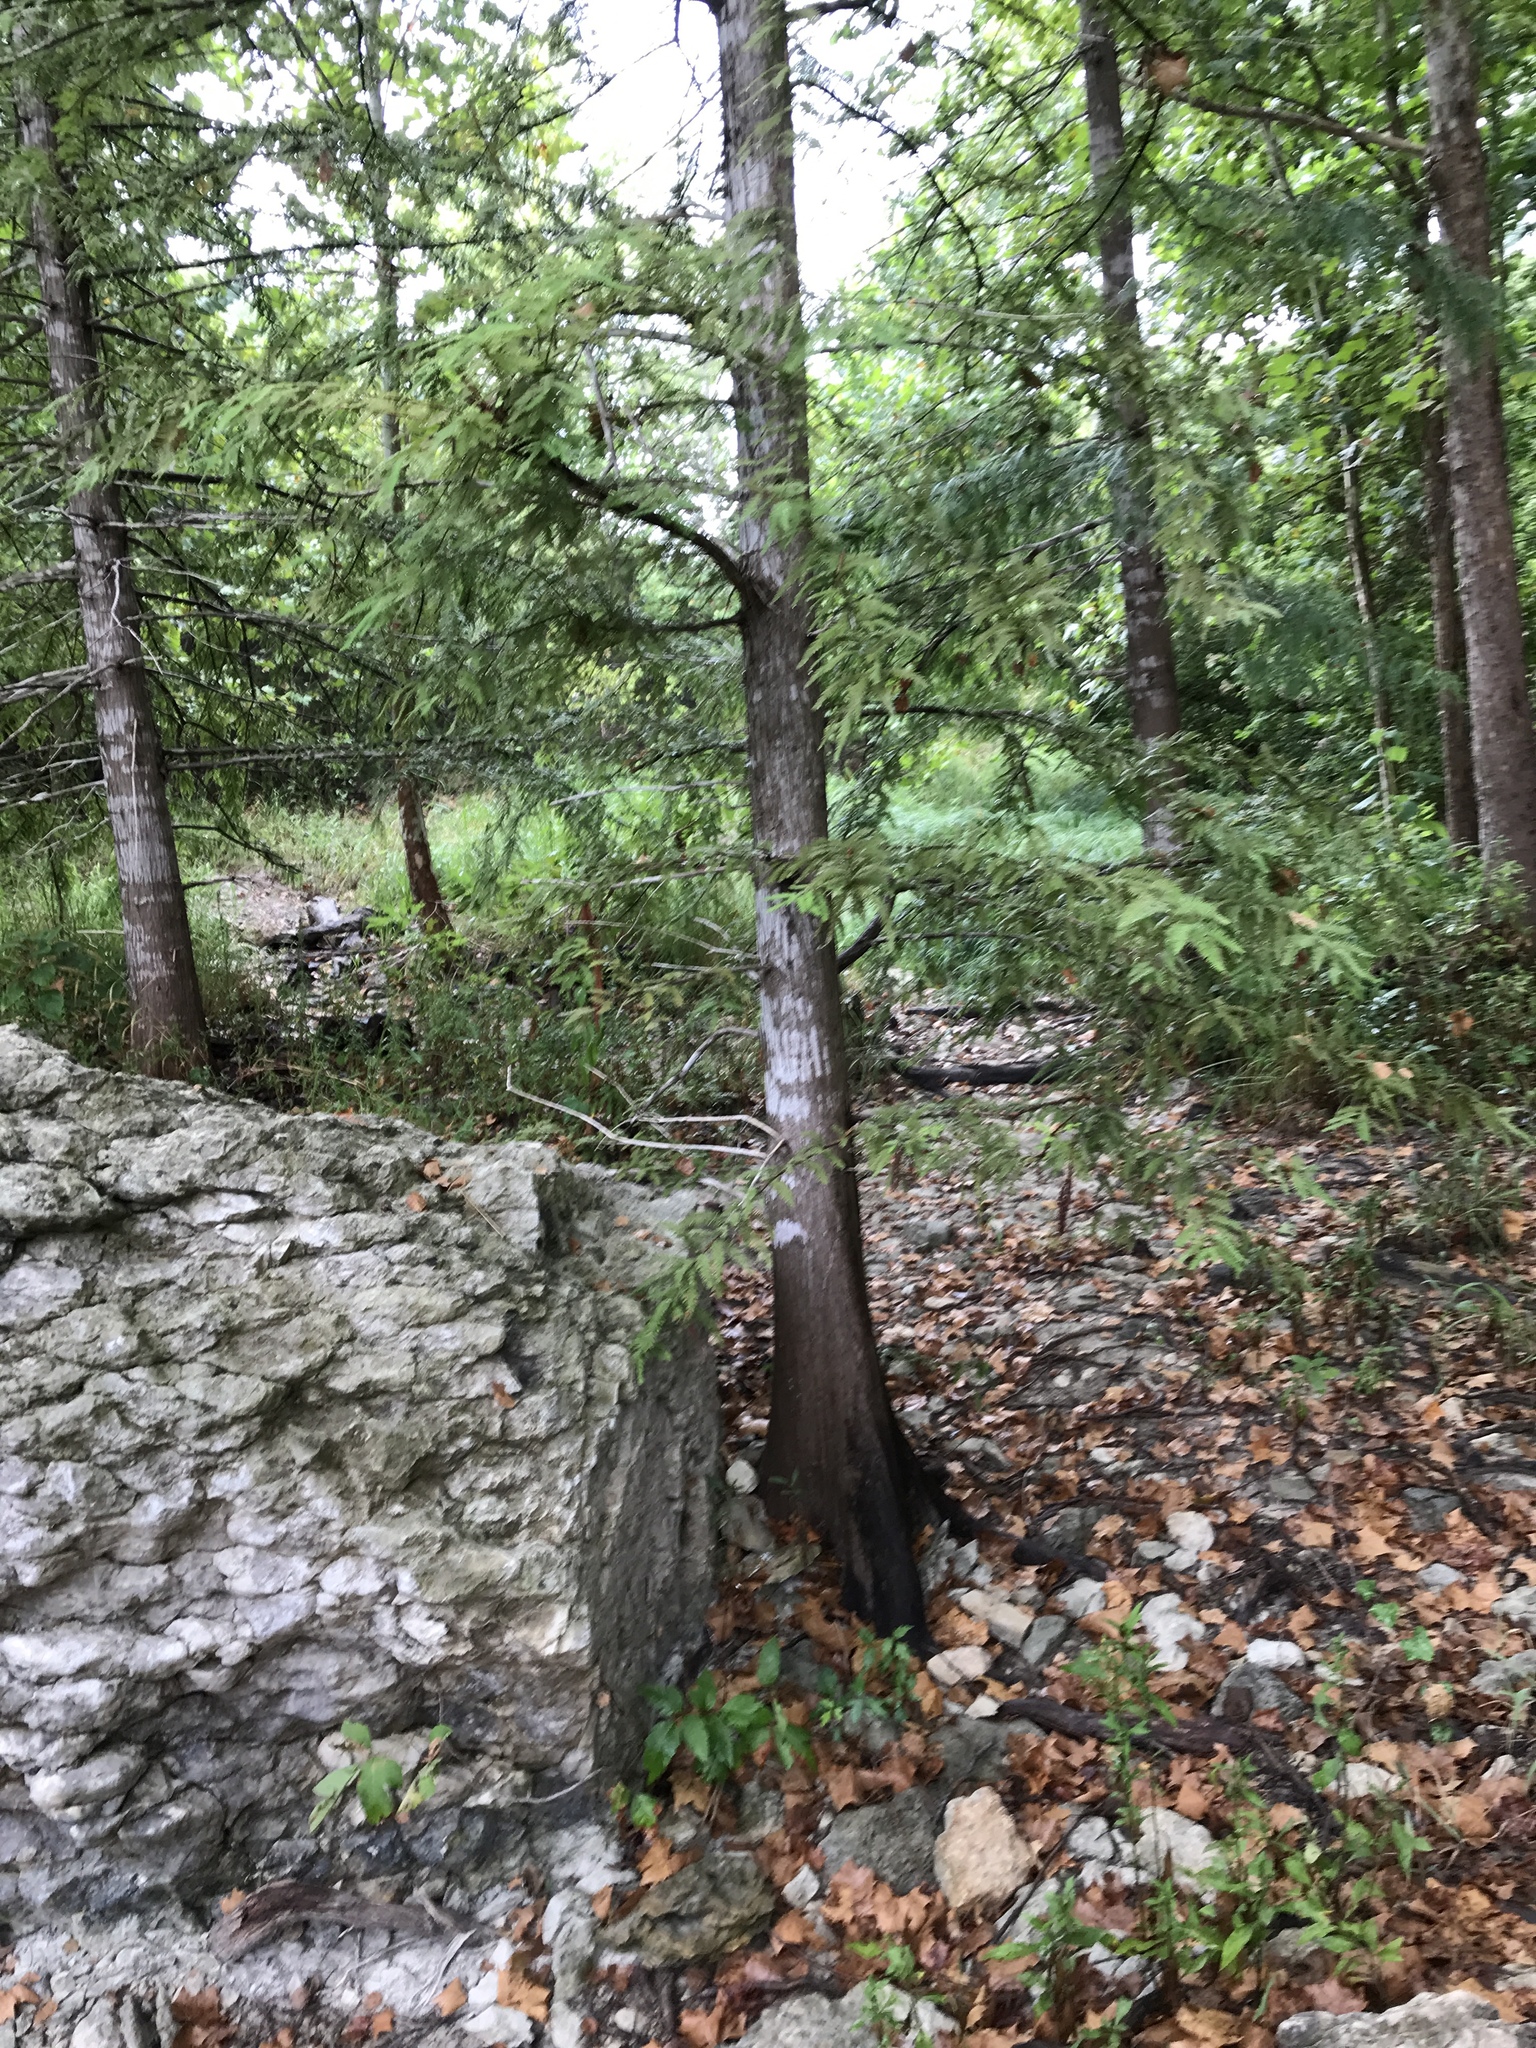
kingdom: Plantae
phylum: Tracheophyta
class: Pinopsida
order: Pinales
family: Cupressaceae
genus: Taxodium
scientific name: Taxodium distichum
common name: Bald cypress
